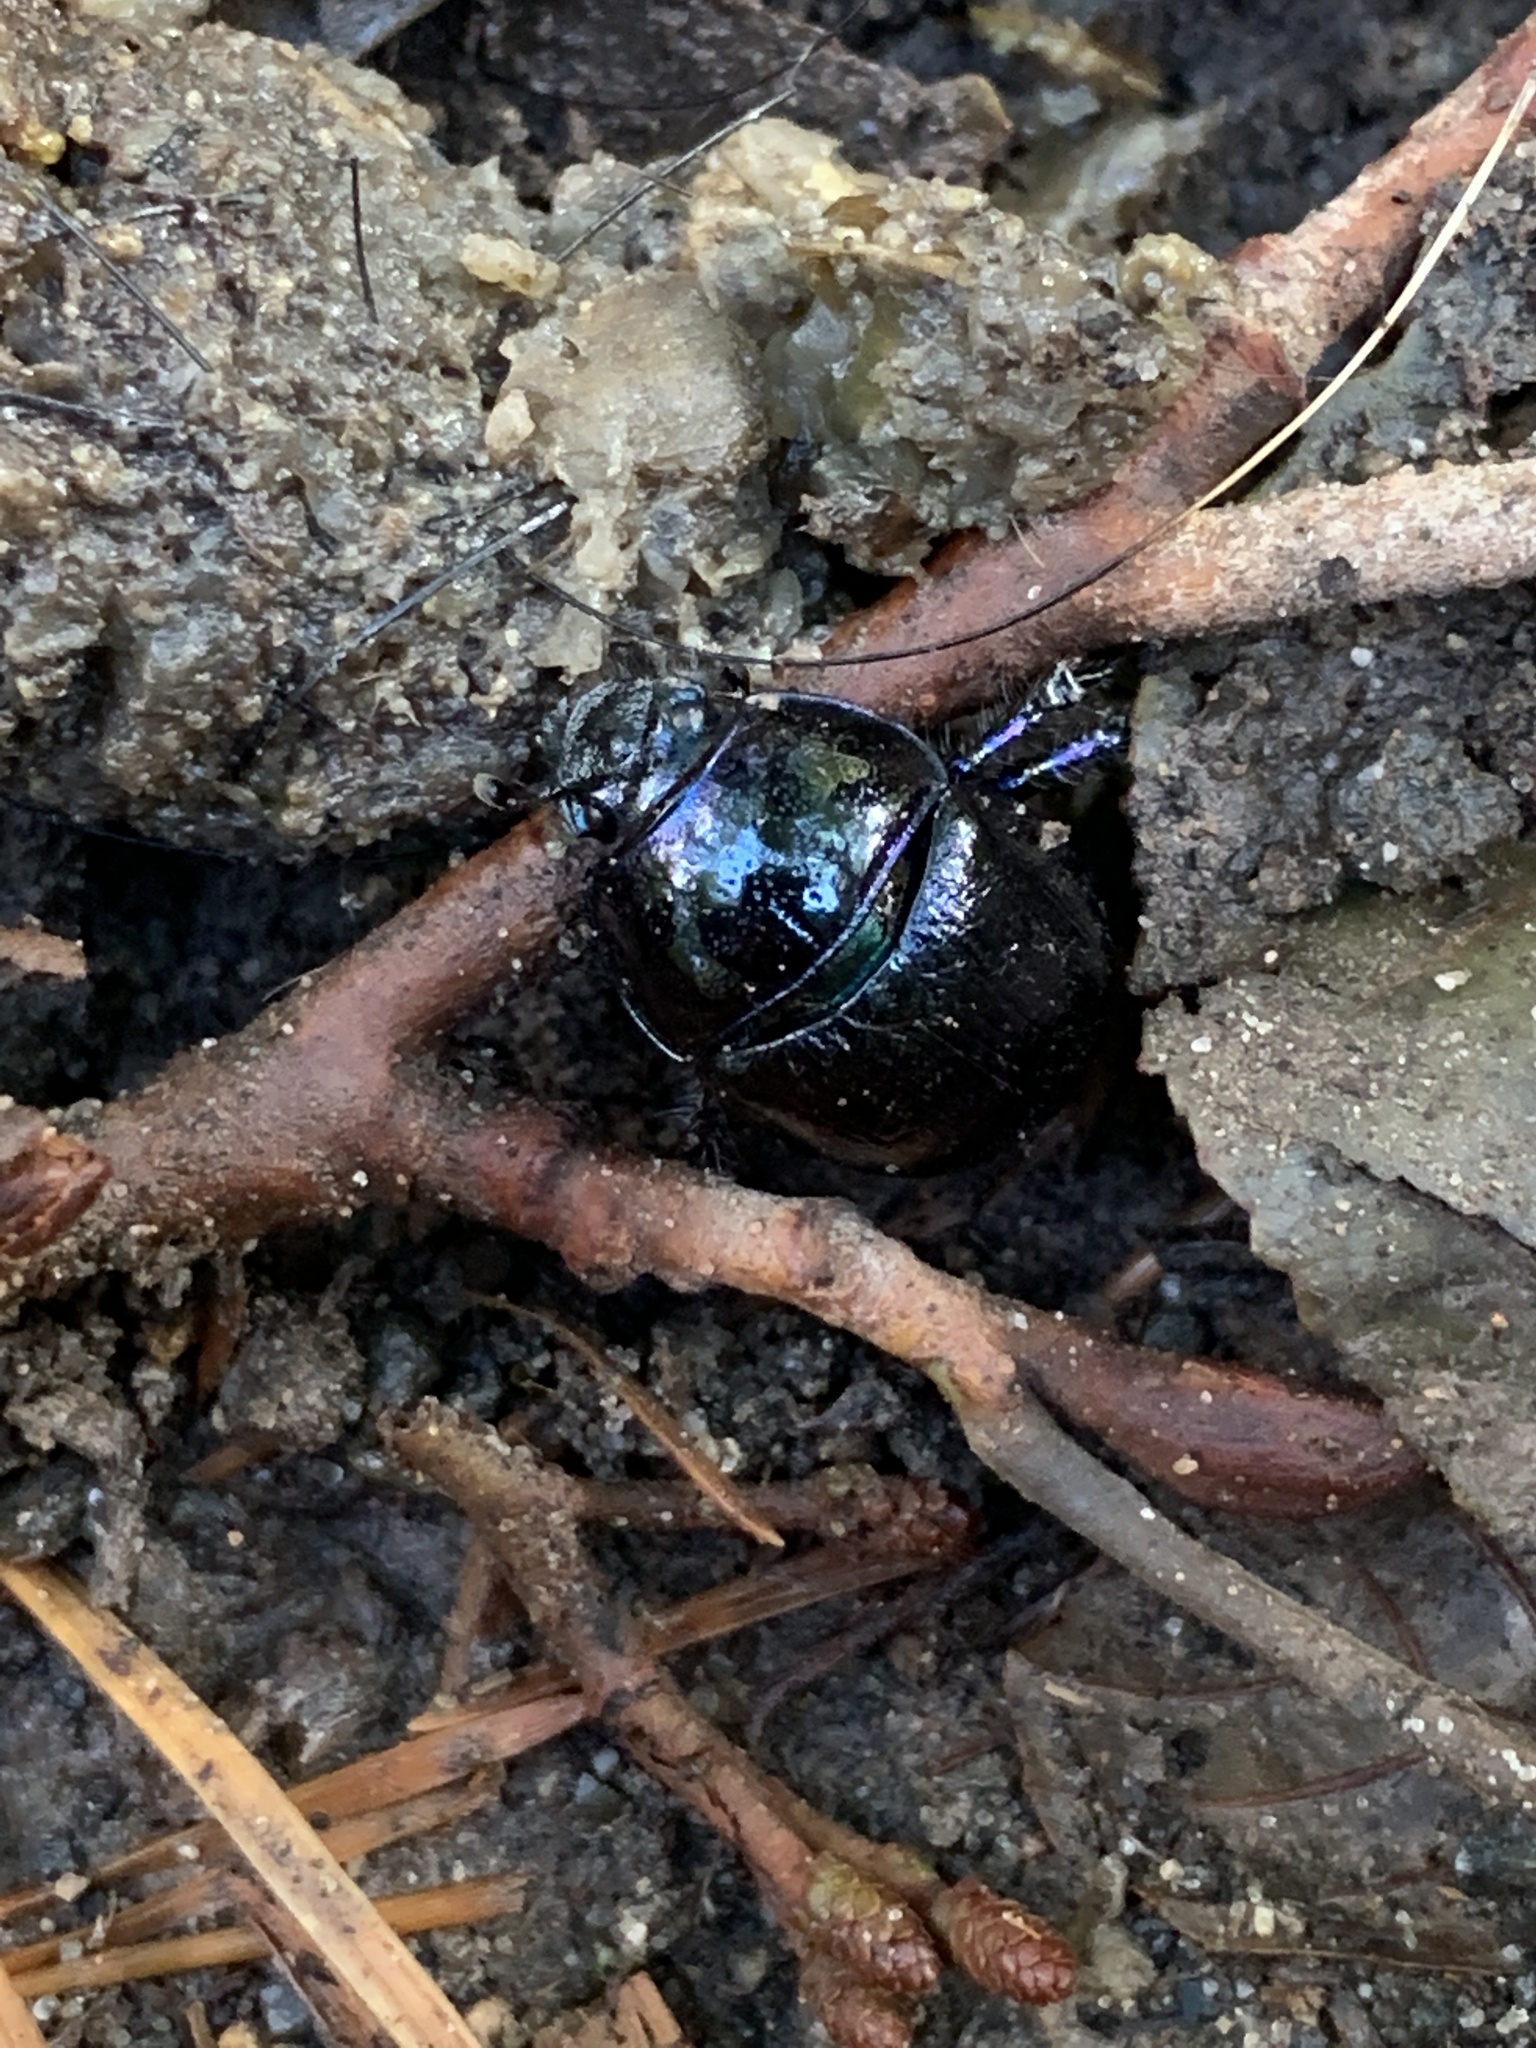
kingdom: Animalia
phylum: Arthropoda
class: Insecta
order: Coleoptera
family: Geotrupidae
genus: Anoplotrupes
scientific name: Anoplotrupes stercorosus
